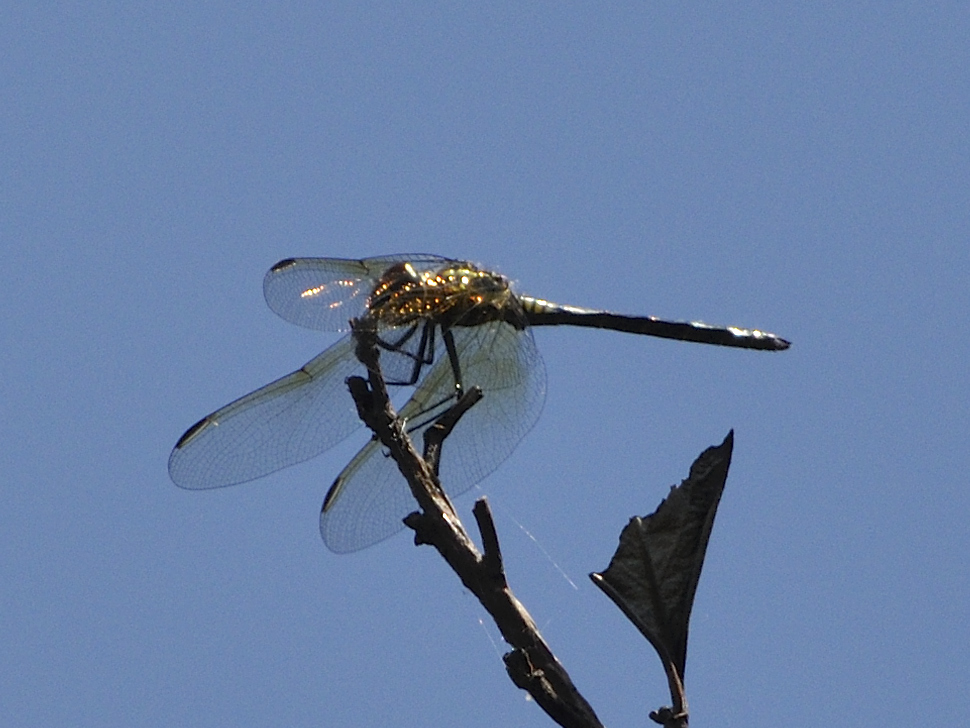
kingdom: Animalia
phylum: Arthropoda
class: Insecta
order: Odonata
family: Libellulidae
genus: Trithemis
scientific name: Trithemis stictica
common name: Jaunty dropwing
